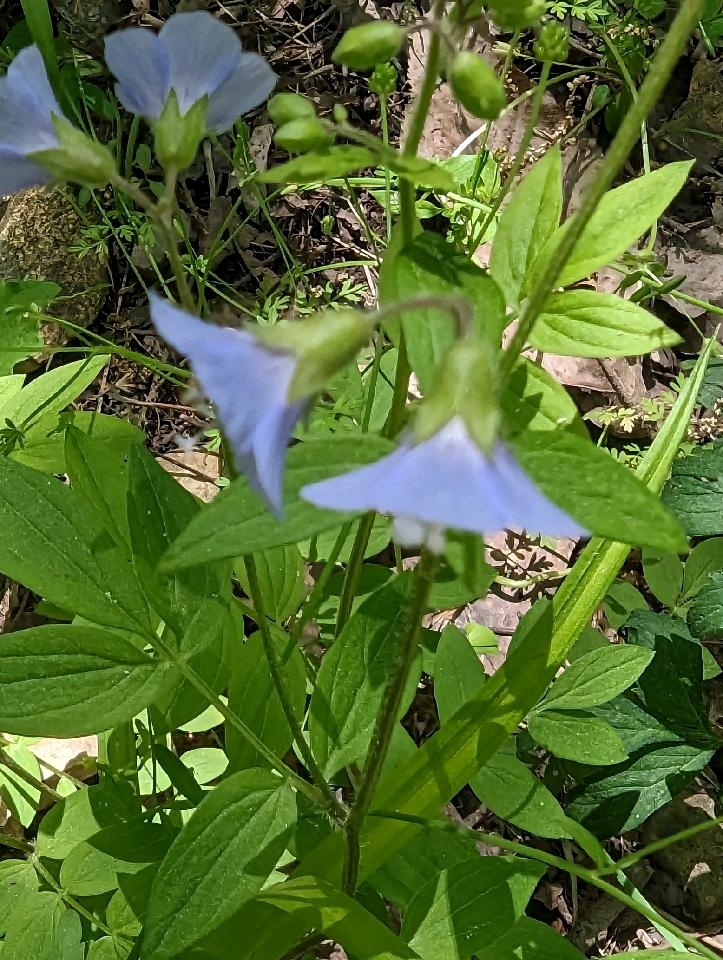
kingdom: Plantae
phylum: Tracheophyta
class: Magnoliopsida
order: Ericales
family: Polemoniaceae
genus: Polemonium
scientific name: Polemonium reptans
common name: Creeping jacob's-ladder
